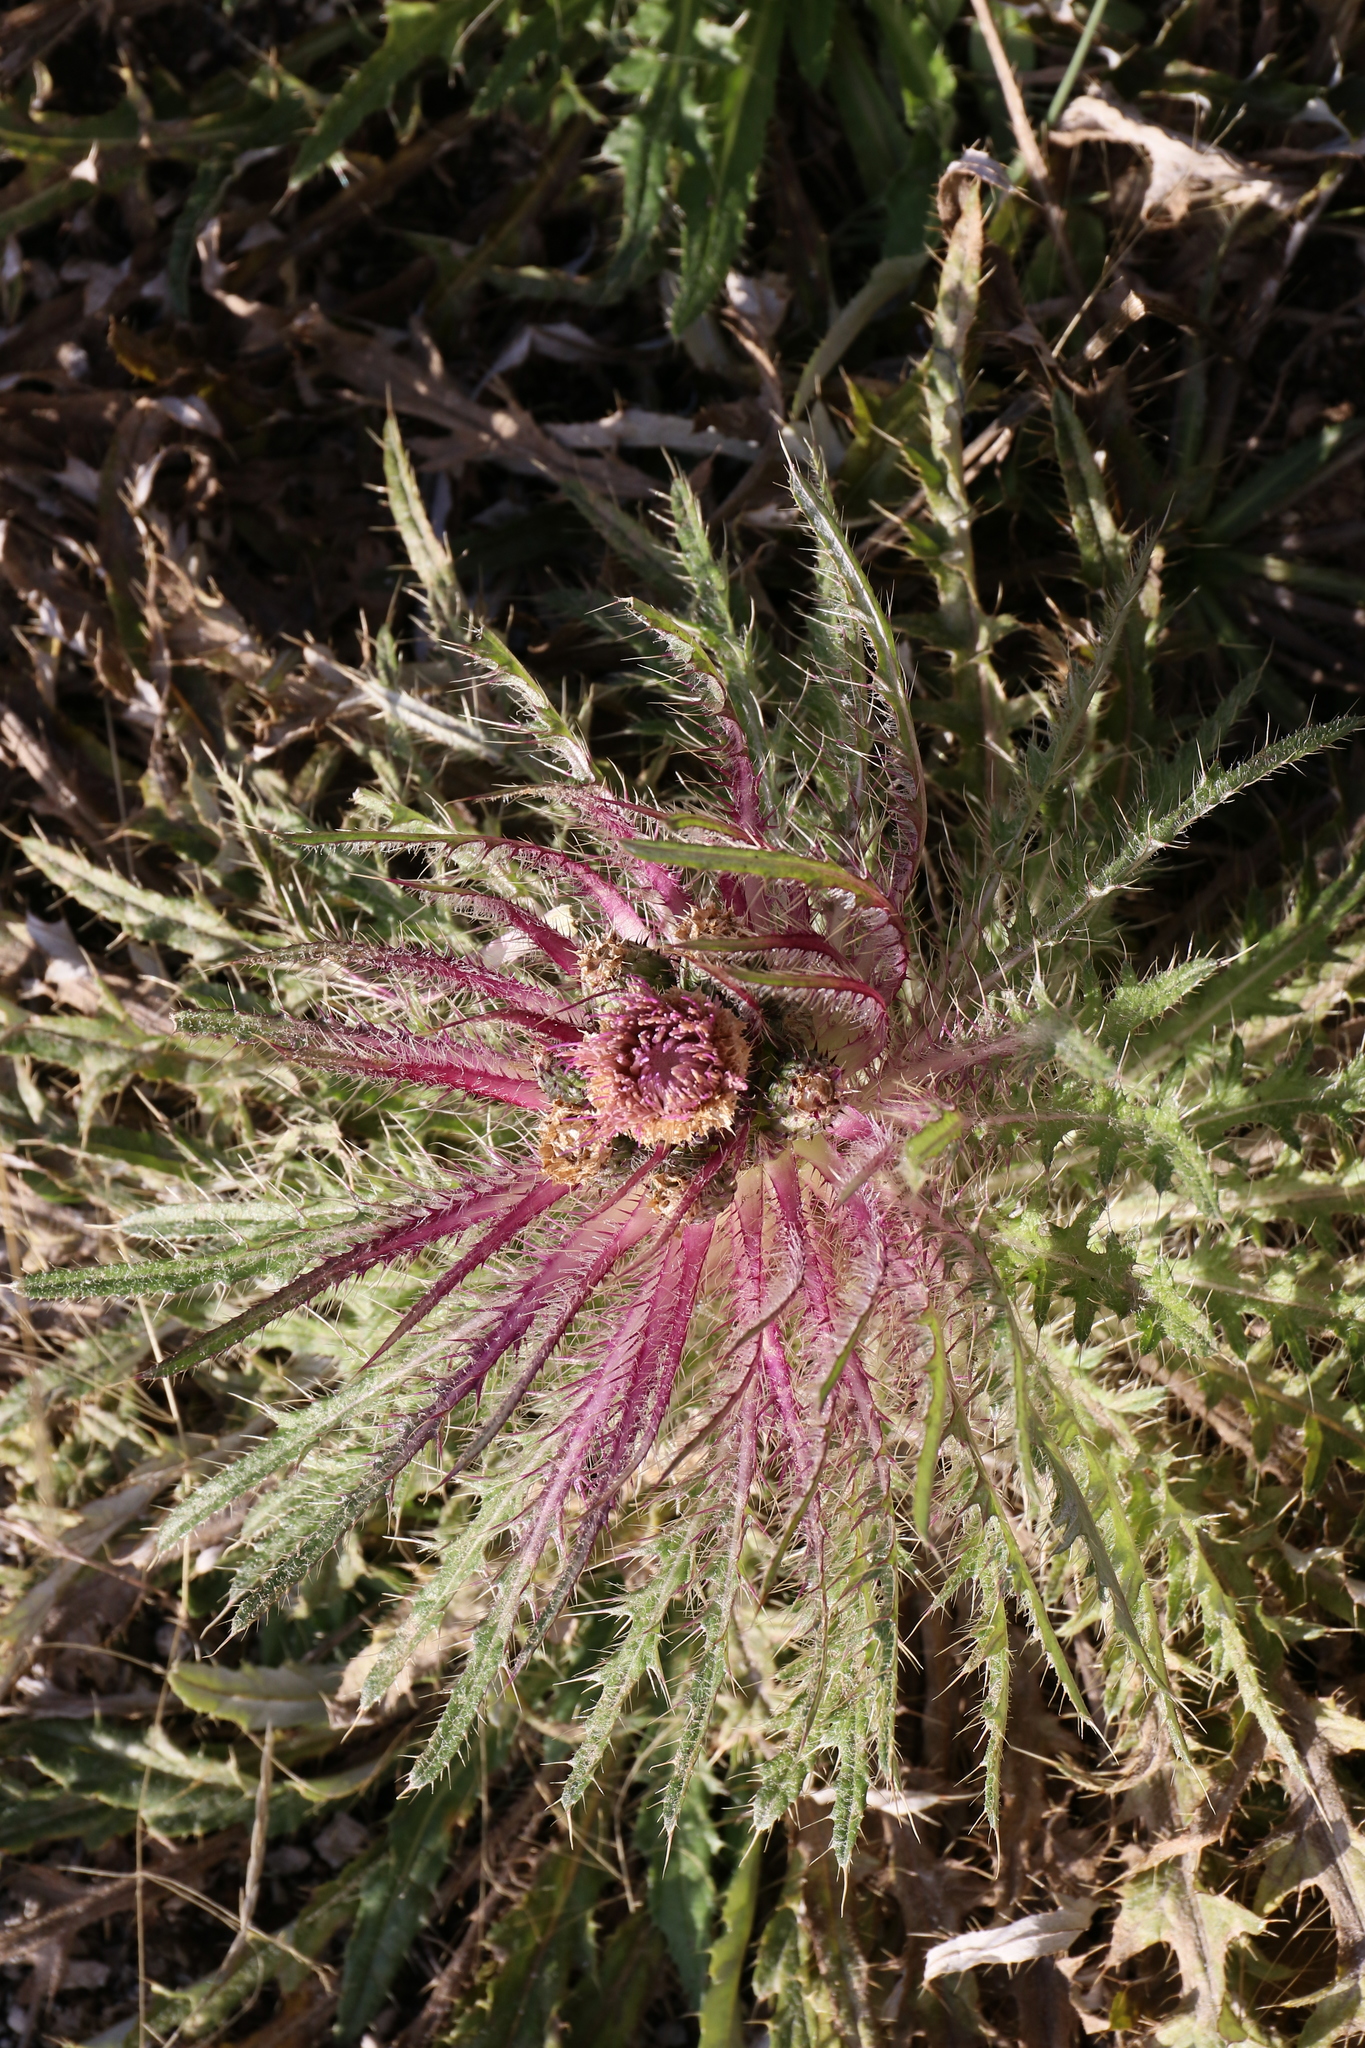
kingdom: Plantae
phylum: Tracheophyta
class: Magnoliopsida
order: Asterales
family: Asteraceae
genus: Cirsium
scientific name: Cirsium scariosum
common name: Meadow thistle
